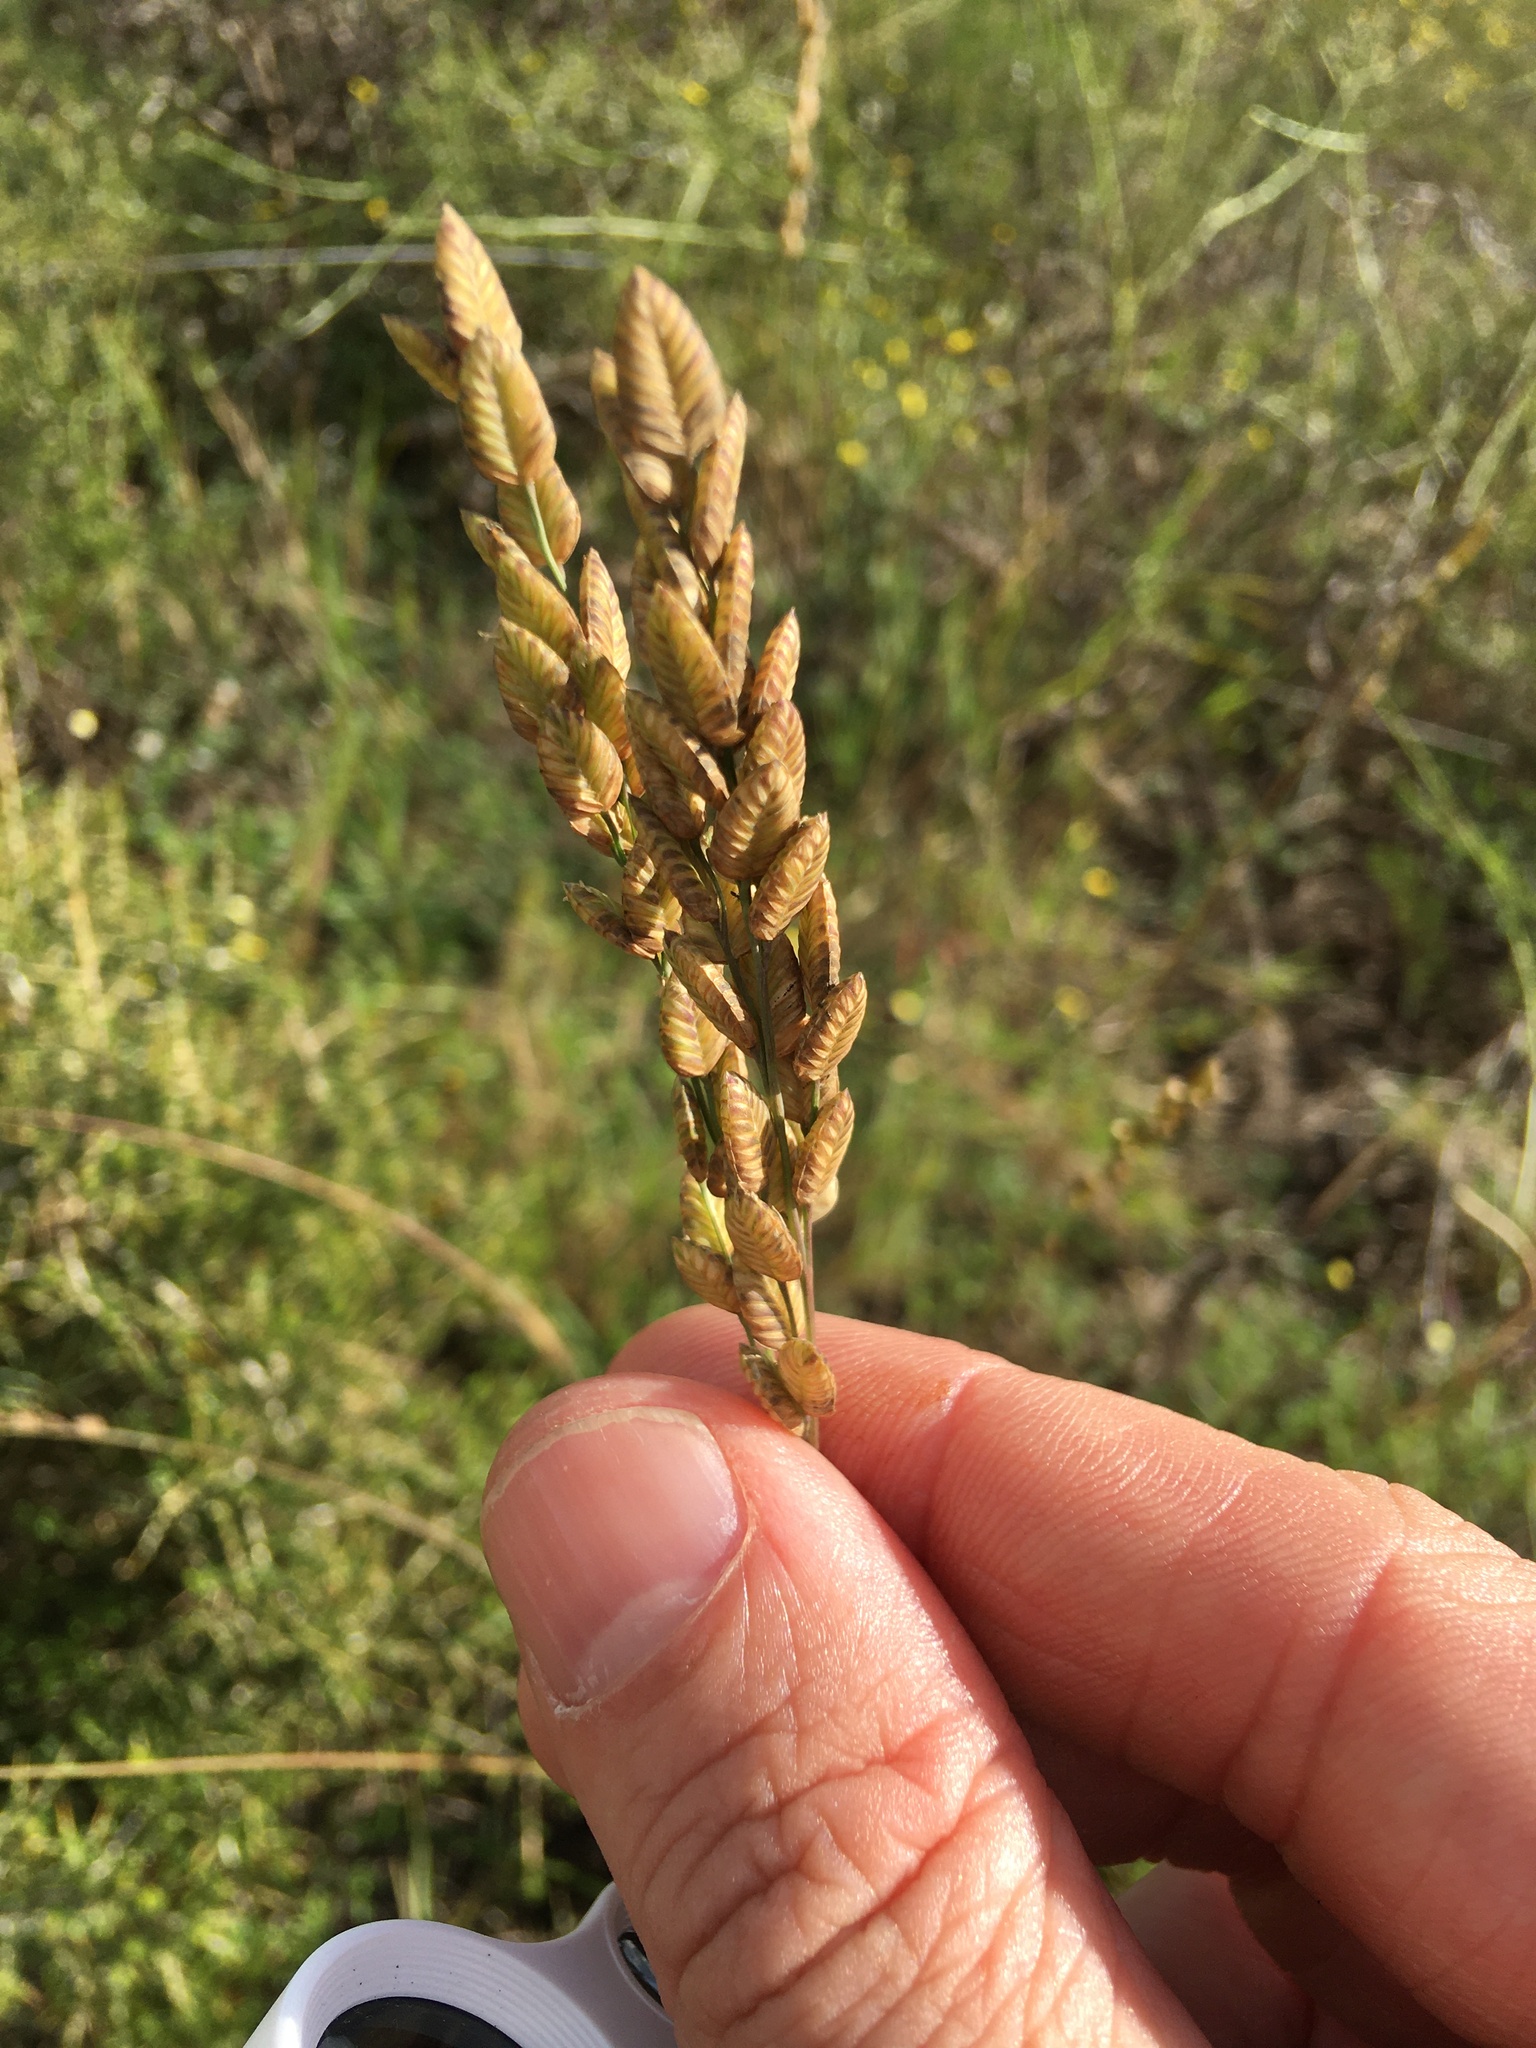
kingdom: Plantae
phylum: Tracheophyta
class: Liliopsida
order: Poales
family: Poaceae
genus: Eragrostis
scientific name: Eragrostis capensis
